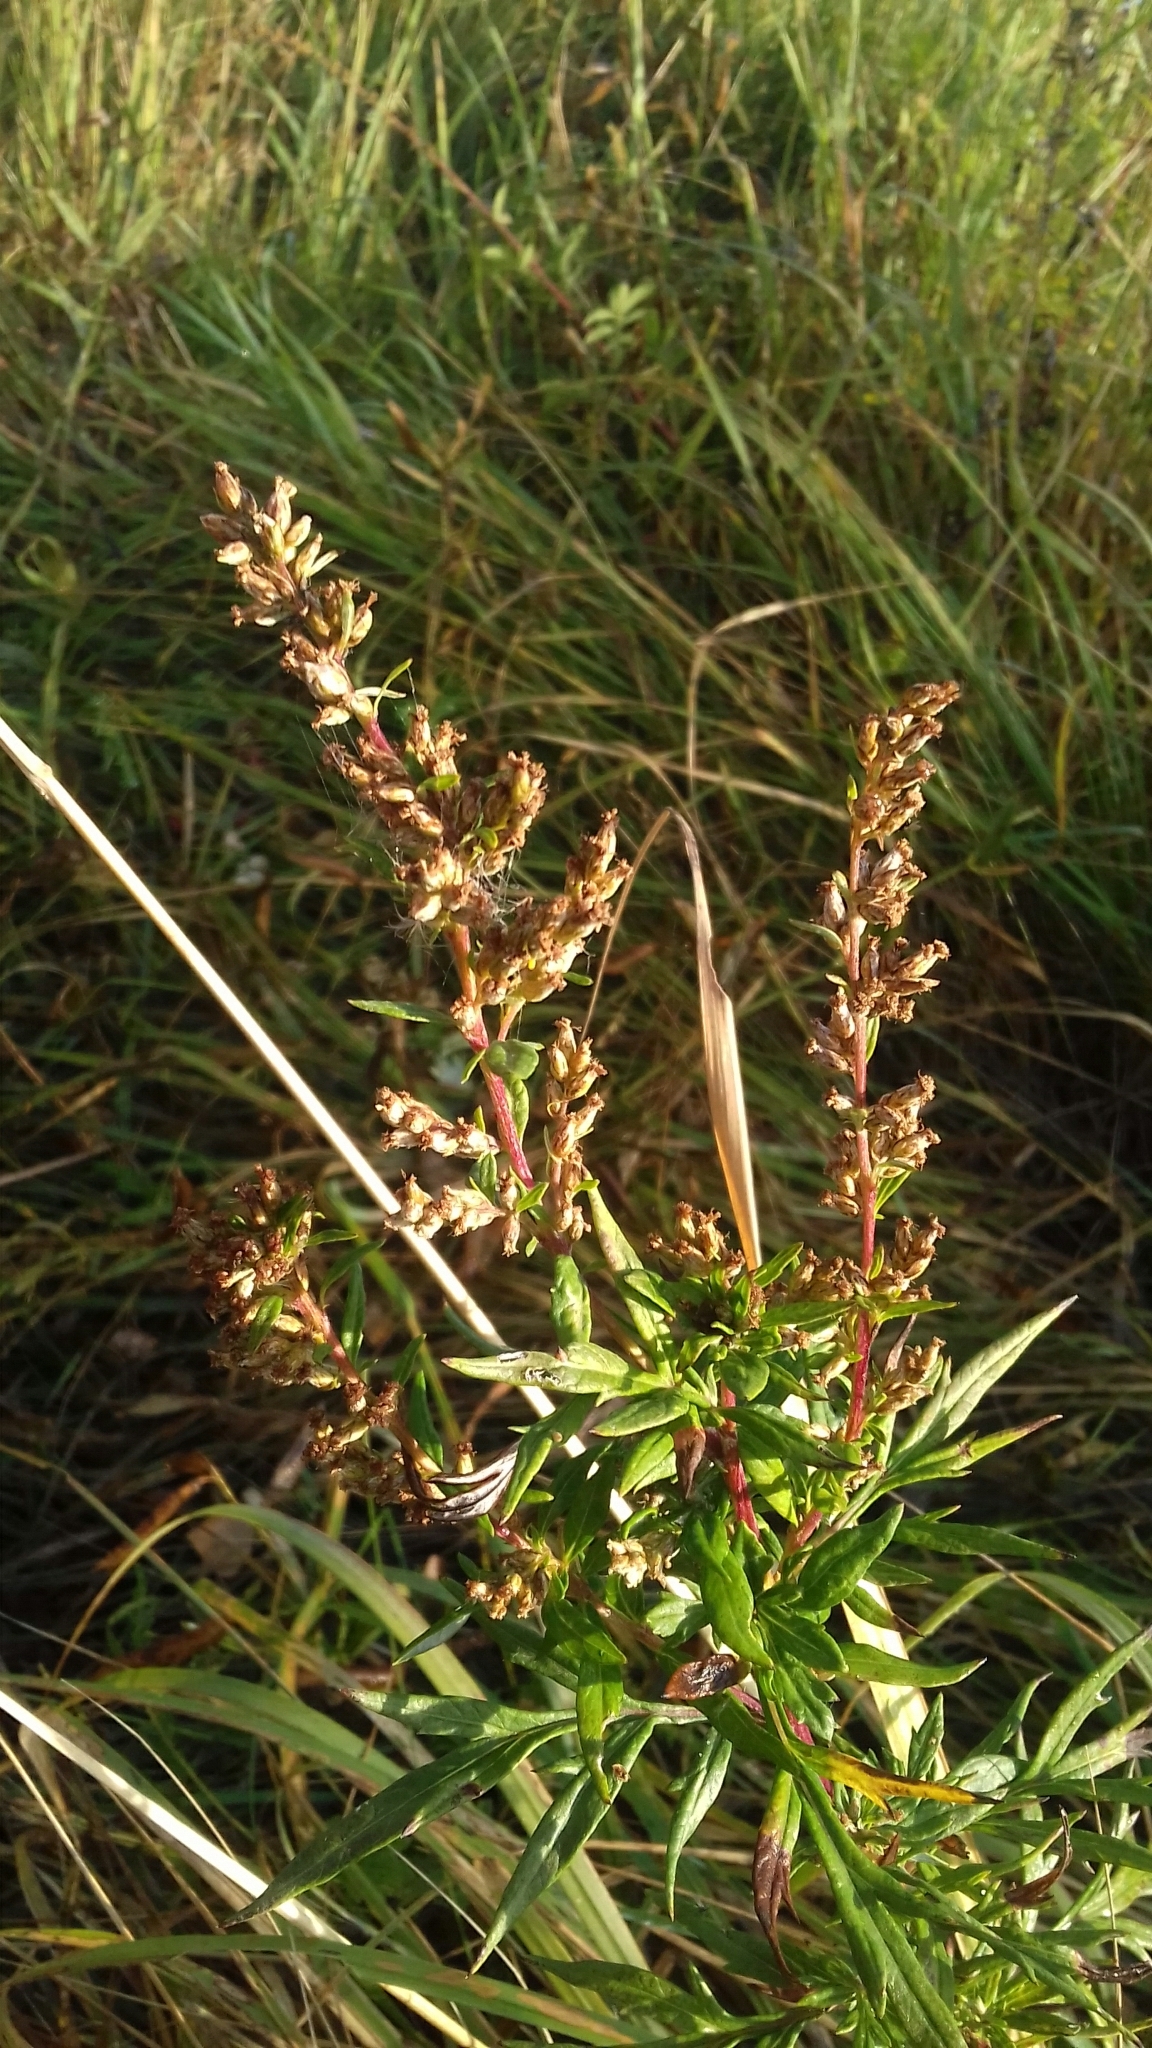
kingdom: Plantae
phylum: Tracheophyta
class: Magnoliopsida
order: Asterales
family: Asteraceae
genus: Artemisia
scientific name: Artemisia vulgaris
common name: Mugwort
